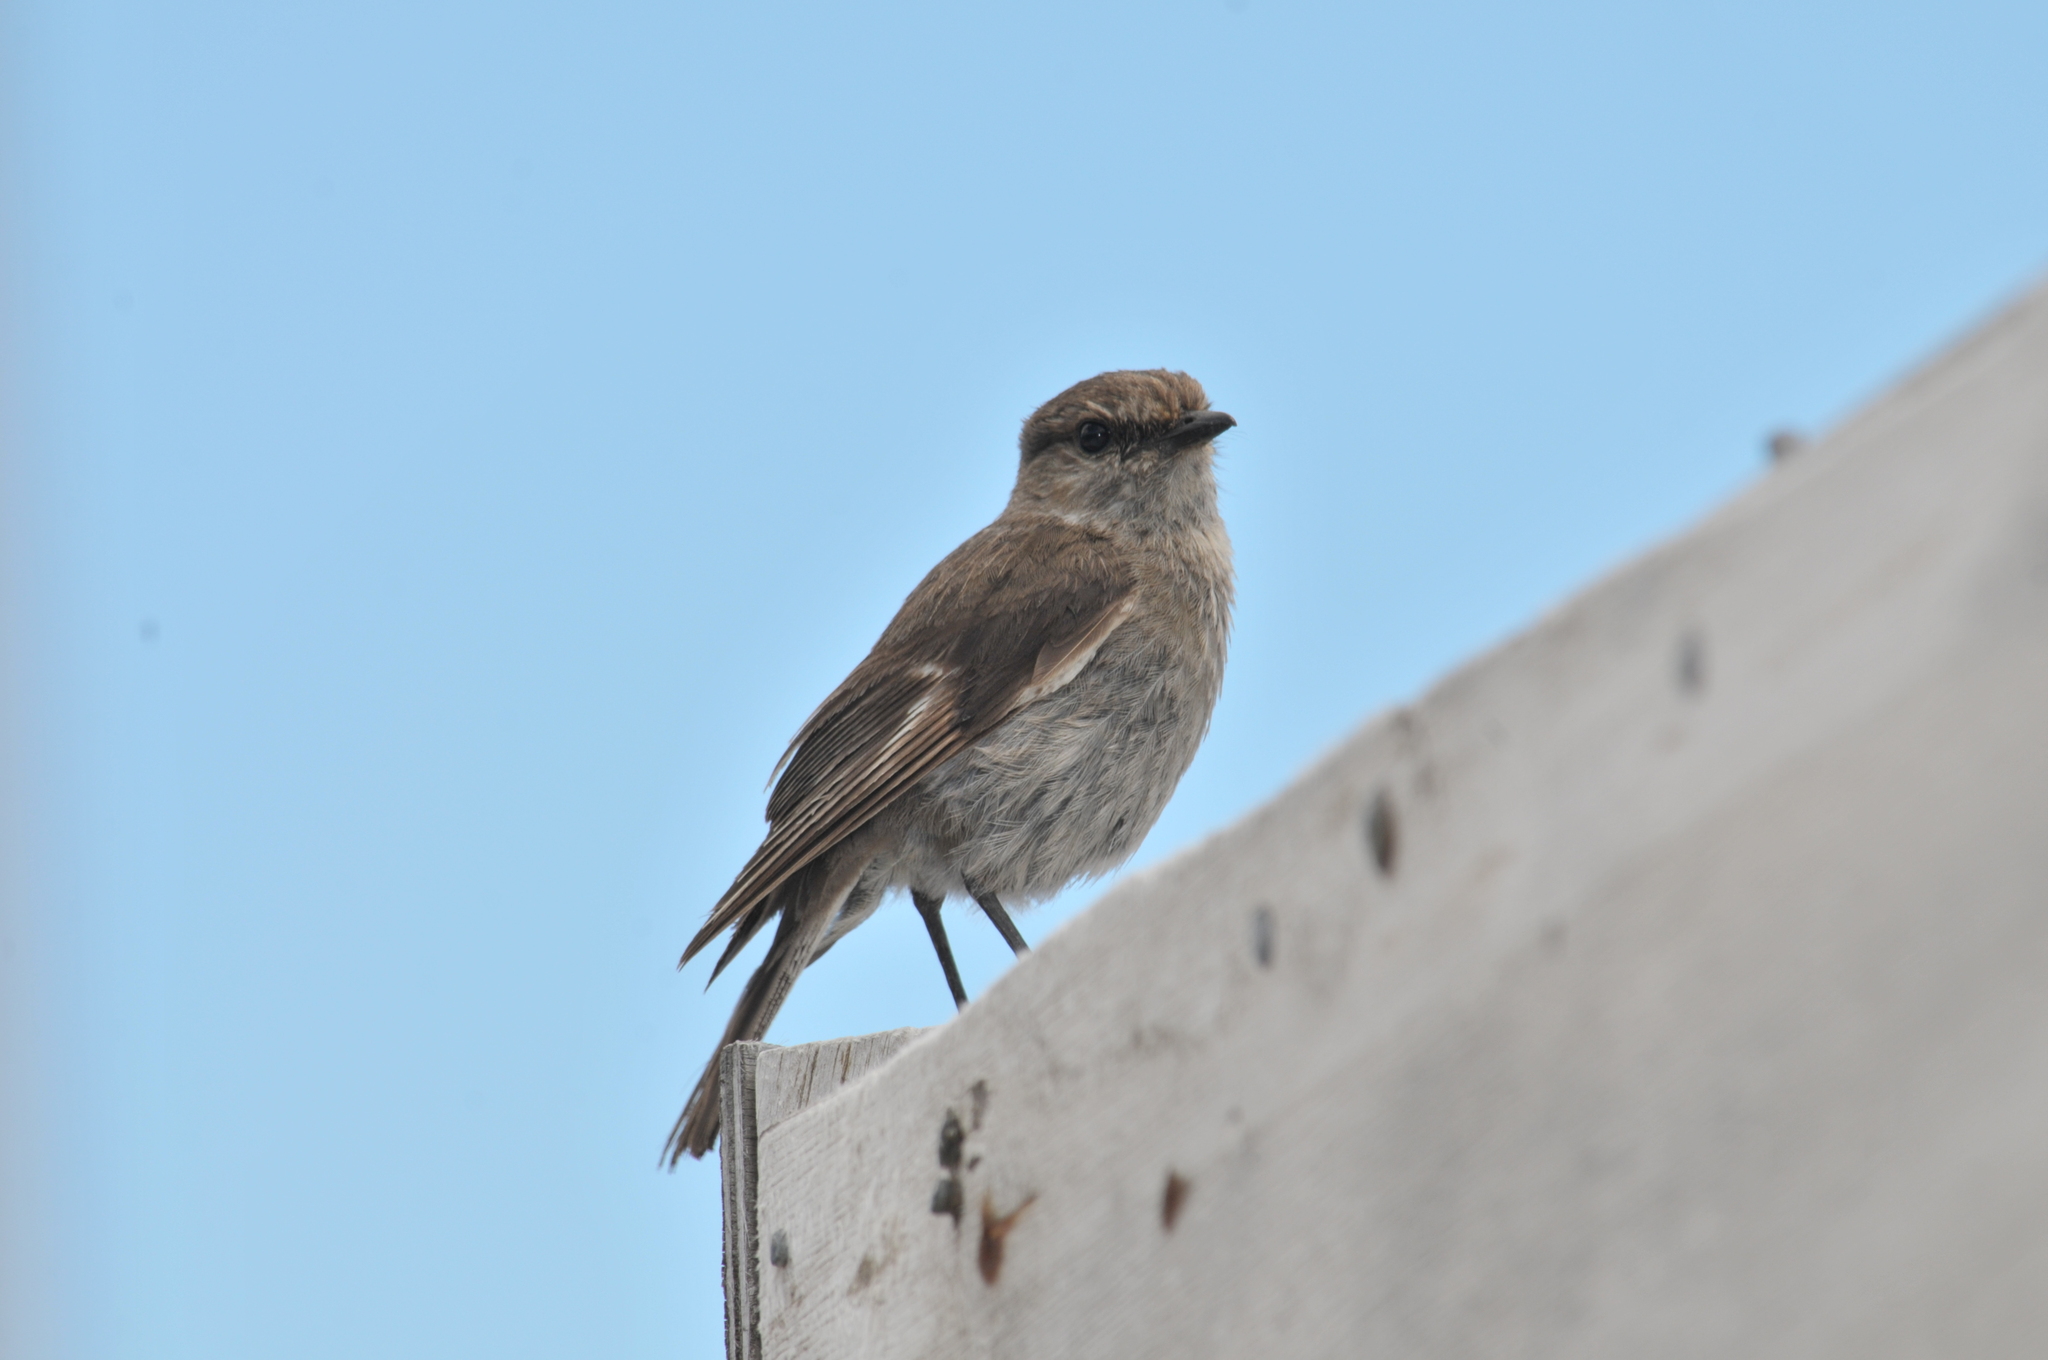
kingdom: Animalia
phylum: Chordata
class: Aves
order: Passeriformes
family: Petroicidae
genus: Melanodryas
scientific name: Melanodryas vittata
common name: Dusky robin
